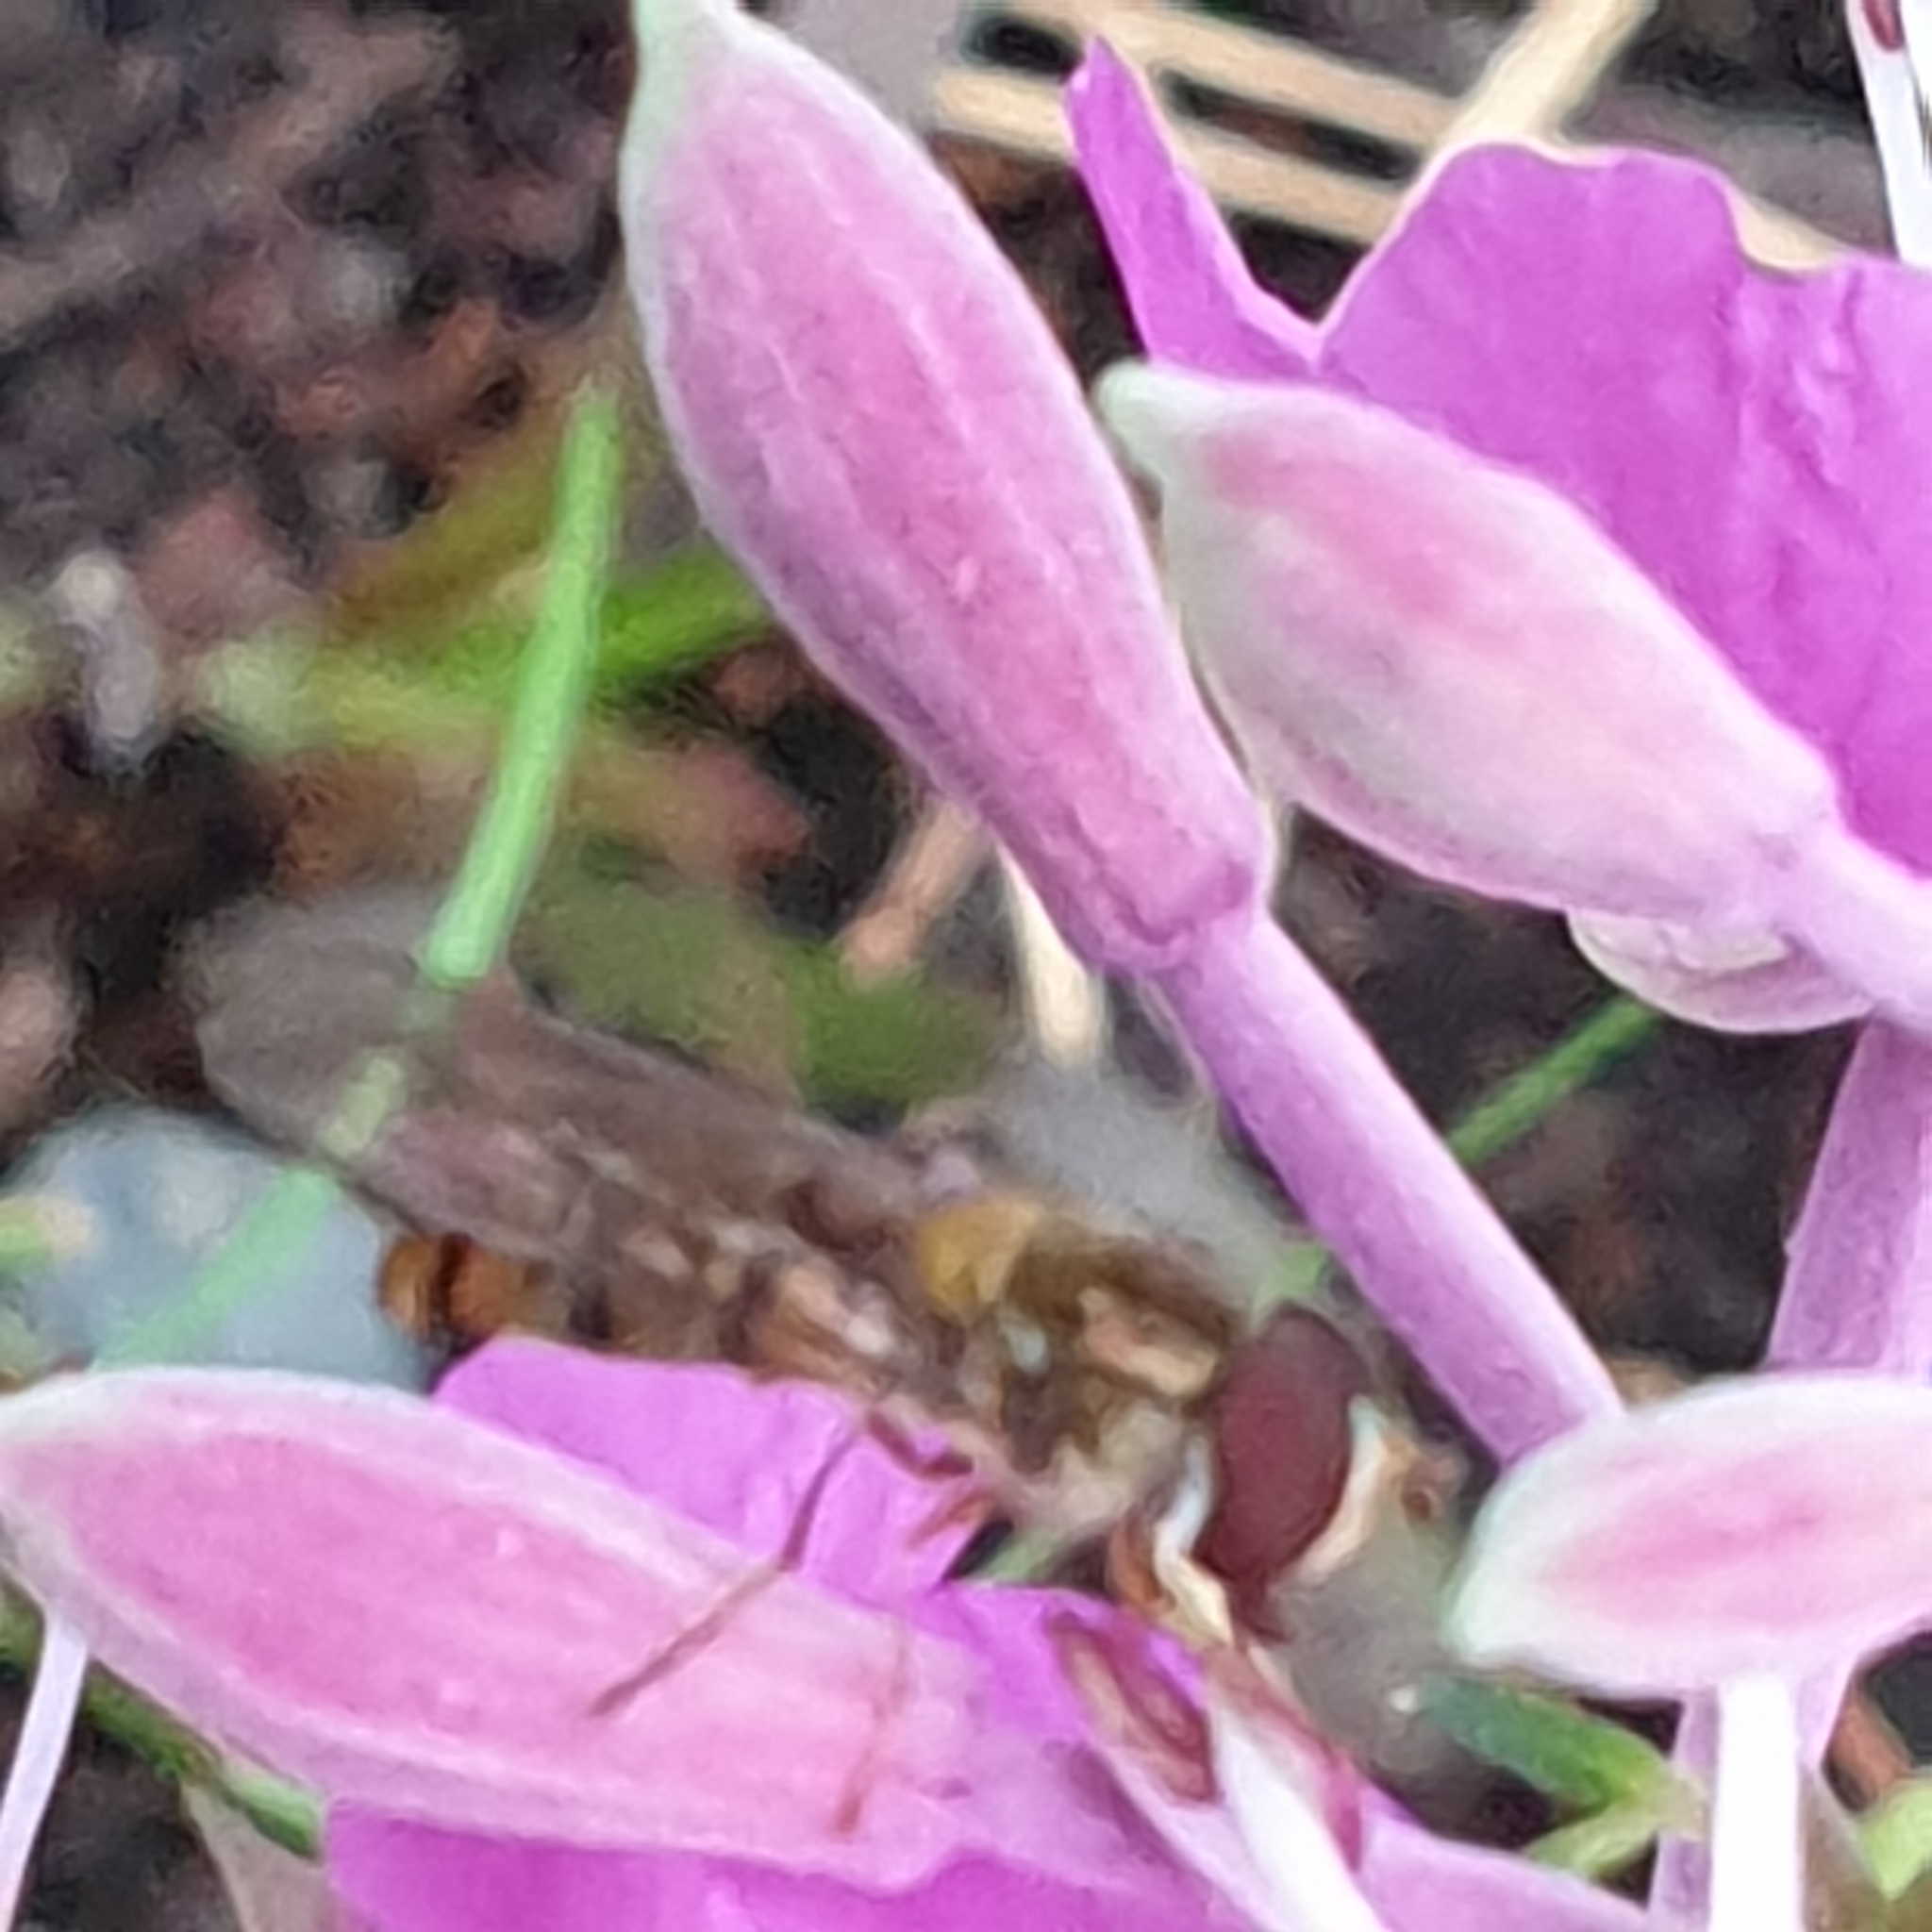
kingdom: Animalia
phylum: Arthropoda
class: Insecta
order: Diptera
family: Syrphidae
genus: Episyrphus
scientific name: Episyrphus balteatus
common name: Marmalade hoverfly
